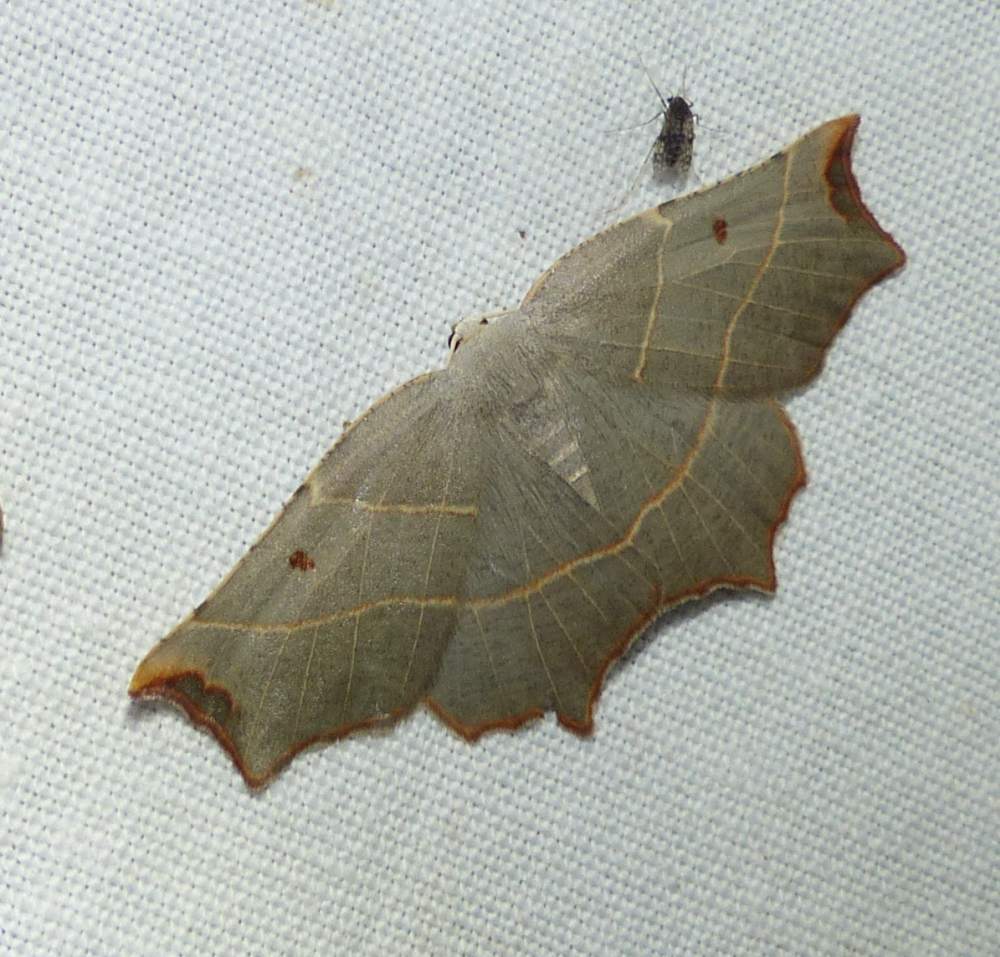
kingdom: Animalia
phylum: Arthropoda
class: Insecta
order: Lepidoptera
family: Geometridae
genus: Metanema
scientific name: Metanema inatomaria
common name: Pale metanema
